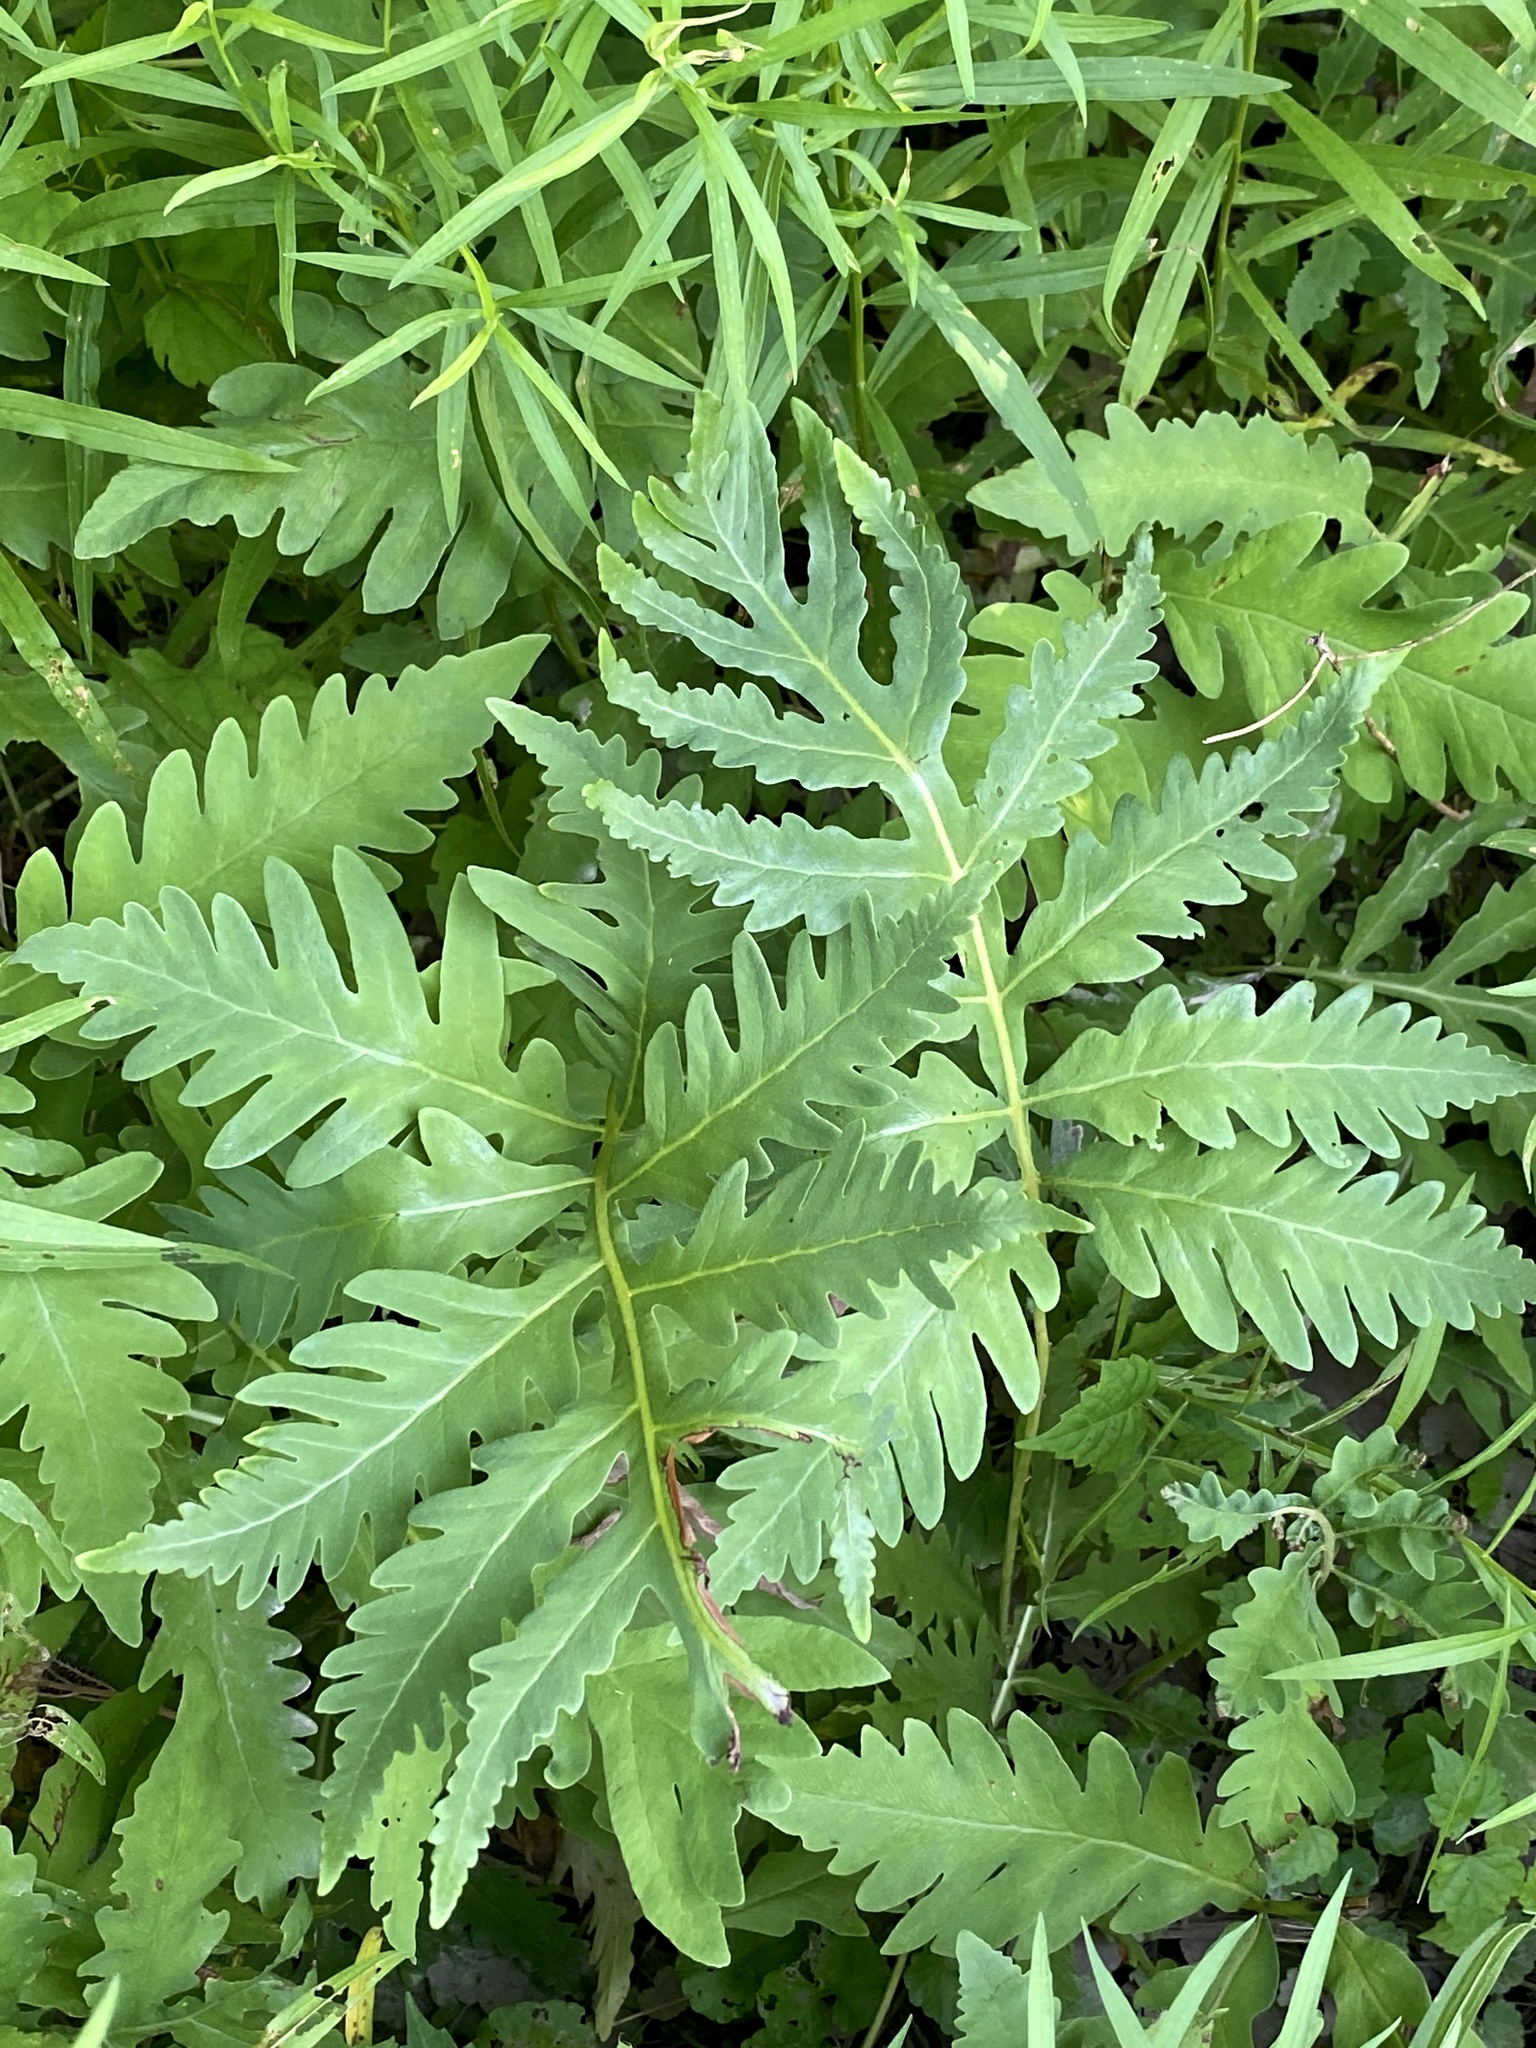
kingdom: Plantae
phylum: Tracheophyta
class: Polypodiopsida
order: Polypodiales
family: Onocleaceae
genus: Onoclea
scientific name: Onoclea sensibilis
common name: Sensitive fern
